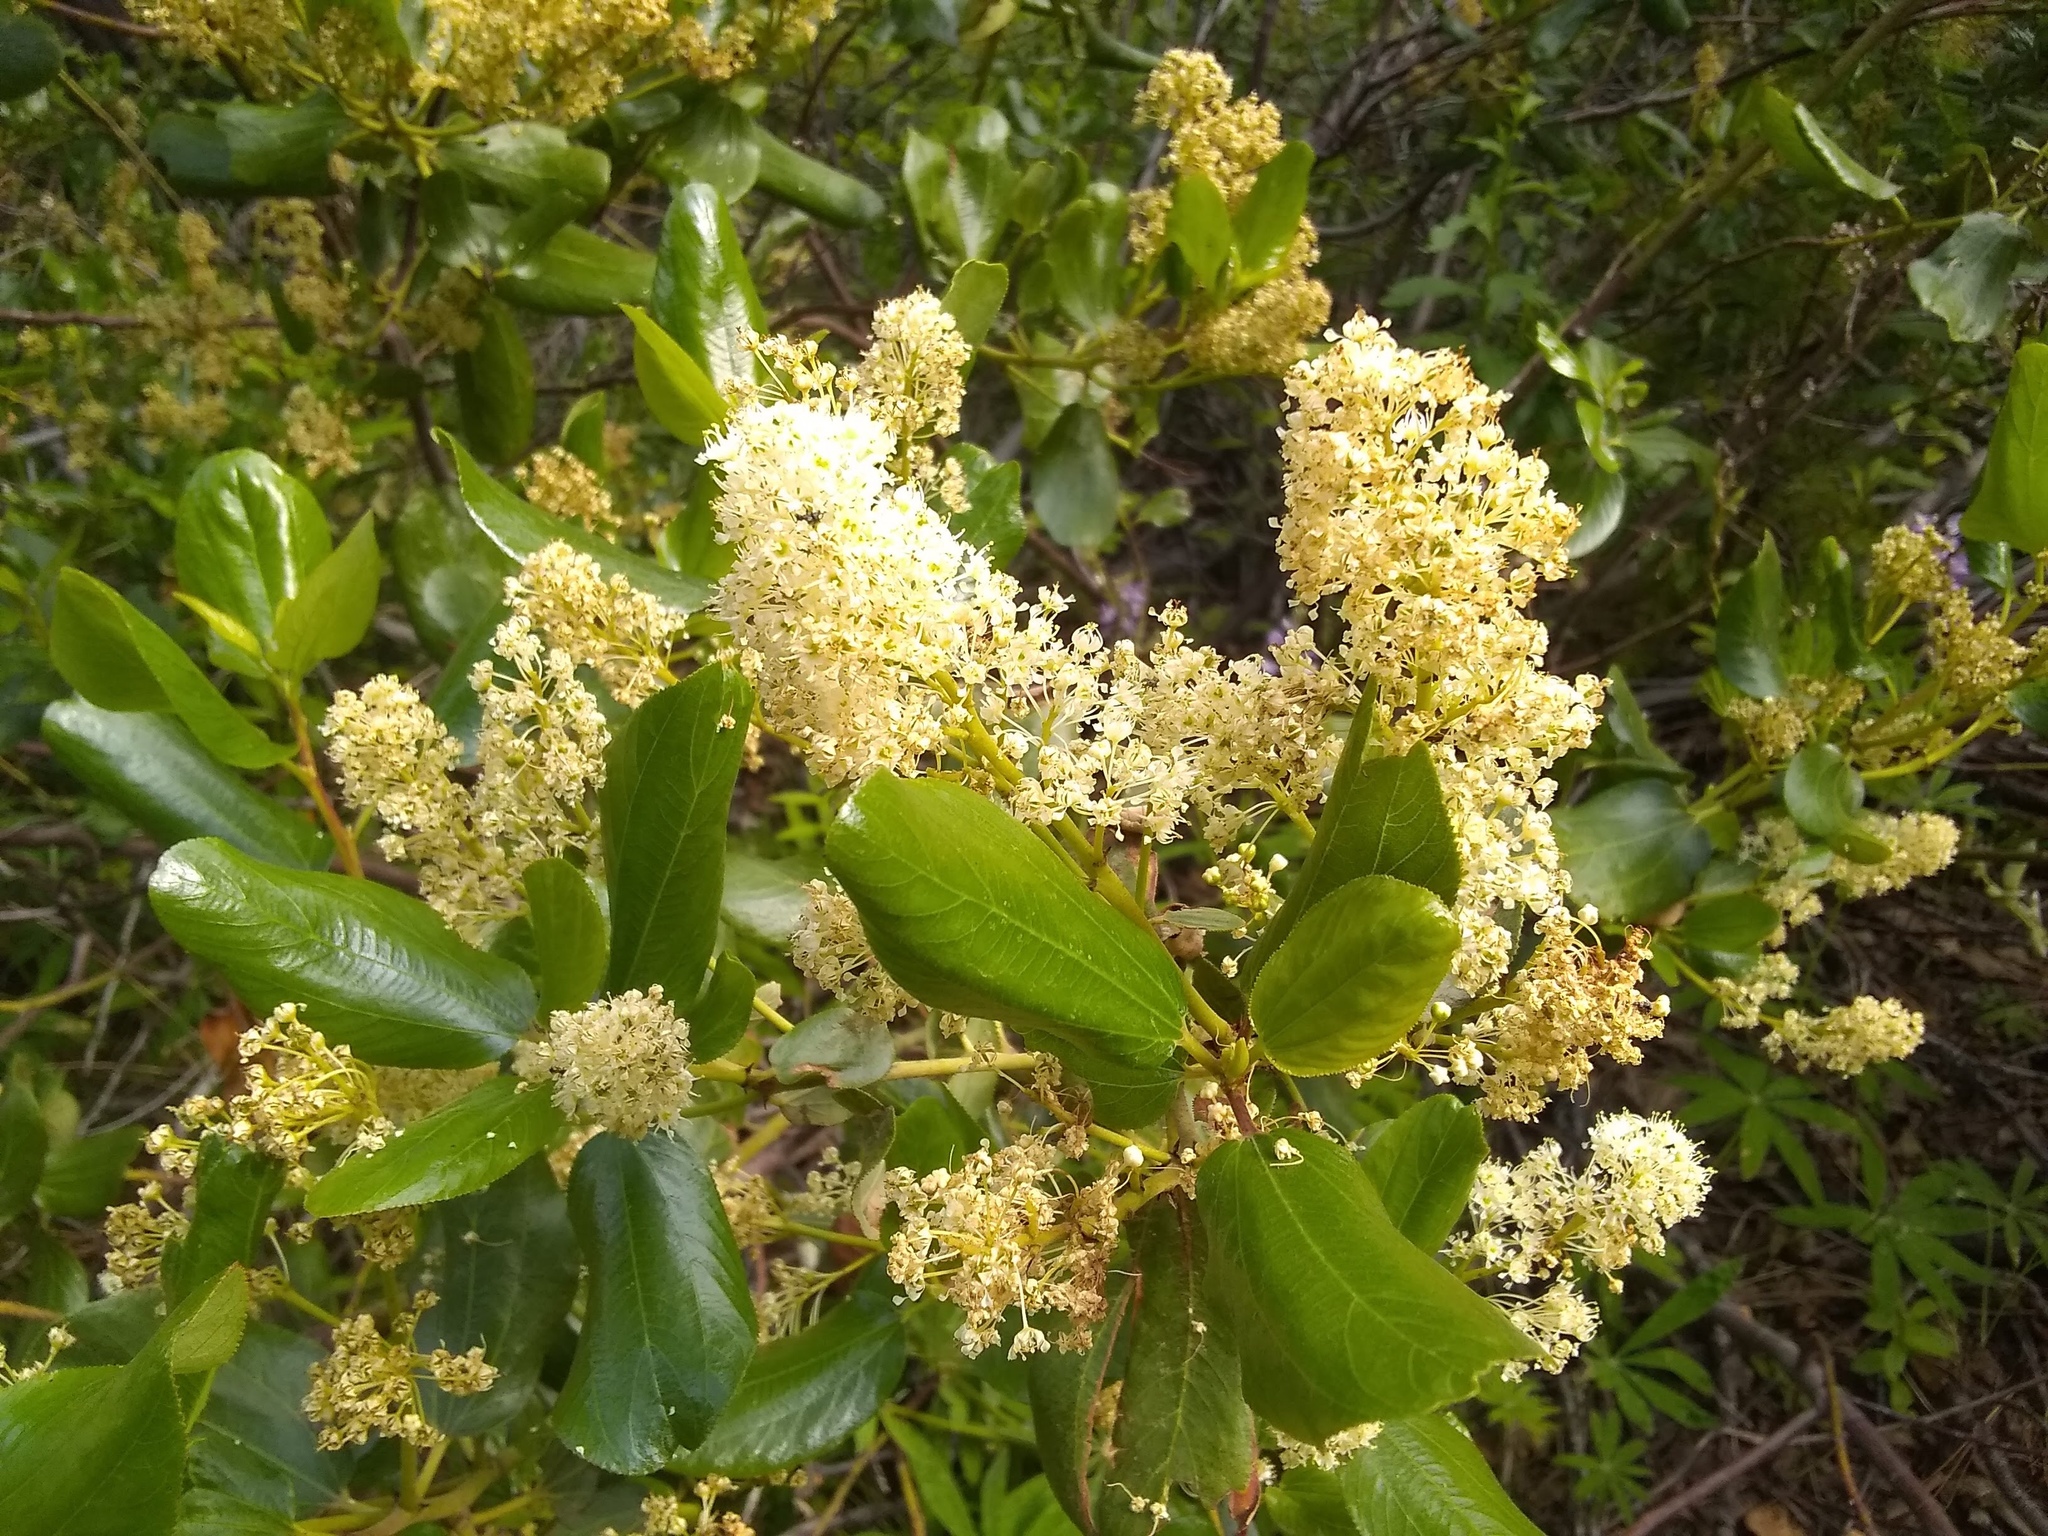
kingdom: Plantae
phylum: Tracheophyta
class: Magnoliopsida
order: Rosales
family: Rhamnaceae
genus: Ceanothus
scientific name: Ceanothus velutinus
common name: Snowbrush
